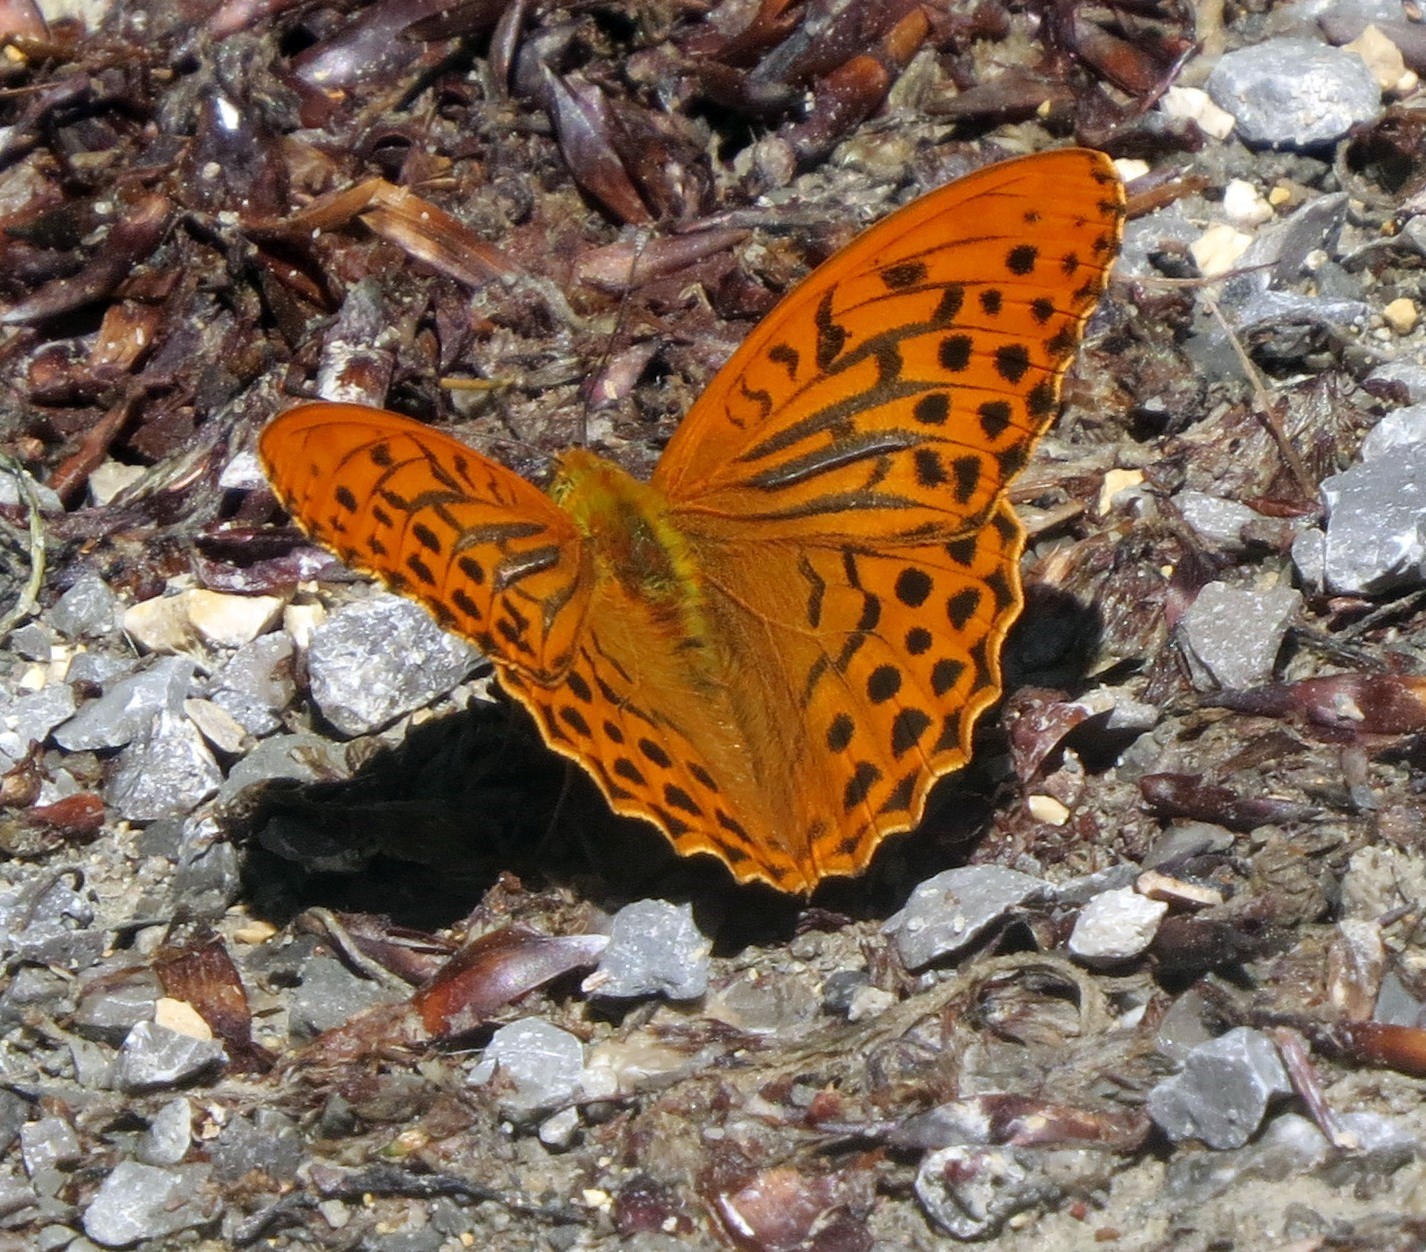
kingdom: Animalia
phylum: Arthropoda
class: Insecta
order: Lepidoptera
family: Nymphalidae
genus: Argynnis
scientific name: Argynnis paphia
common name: Silver-washed fritillary
